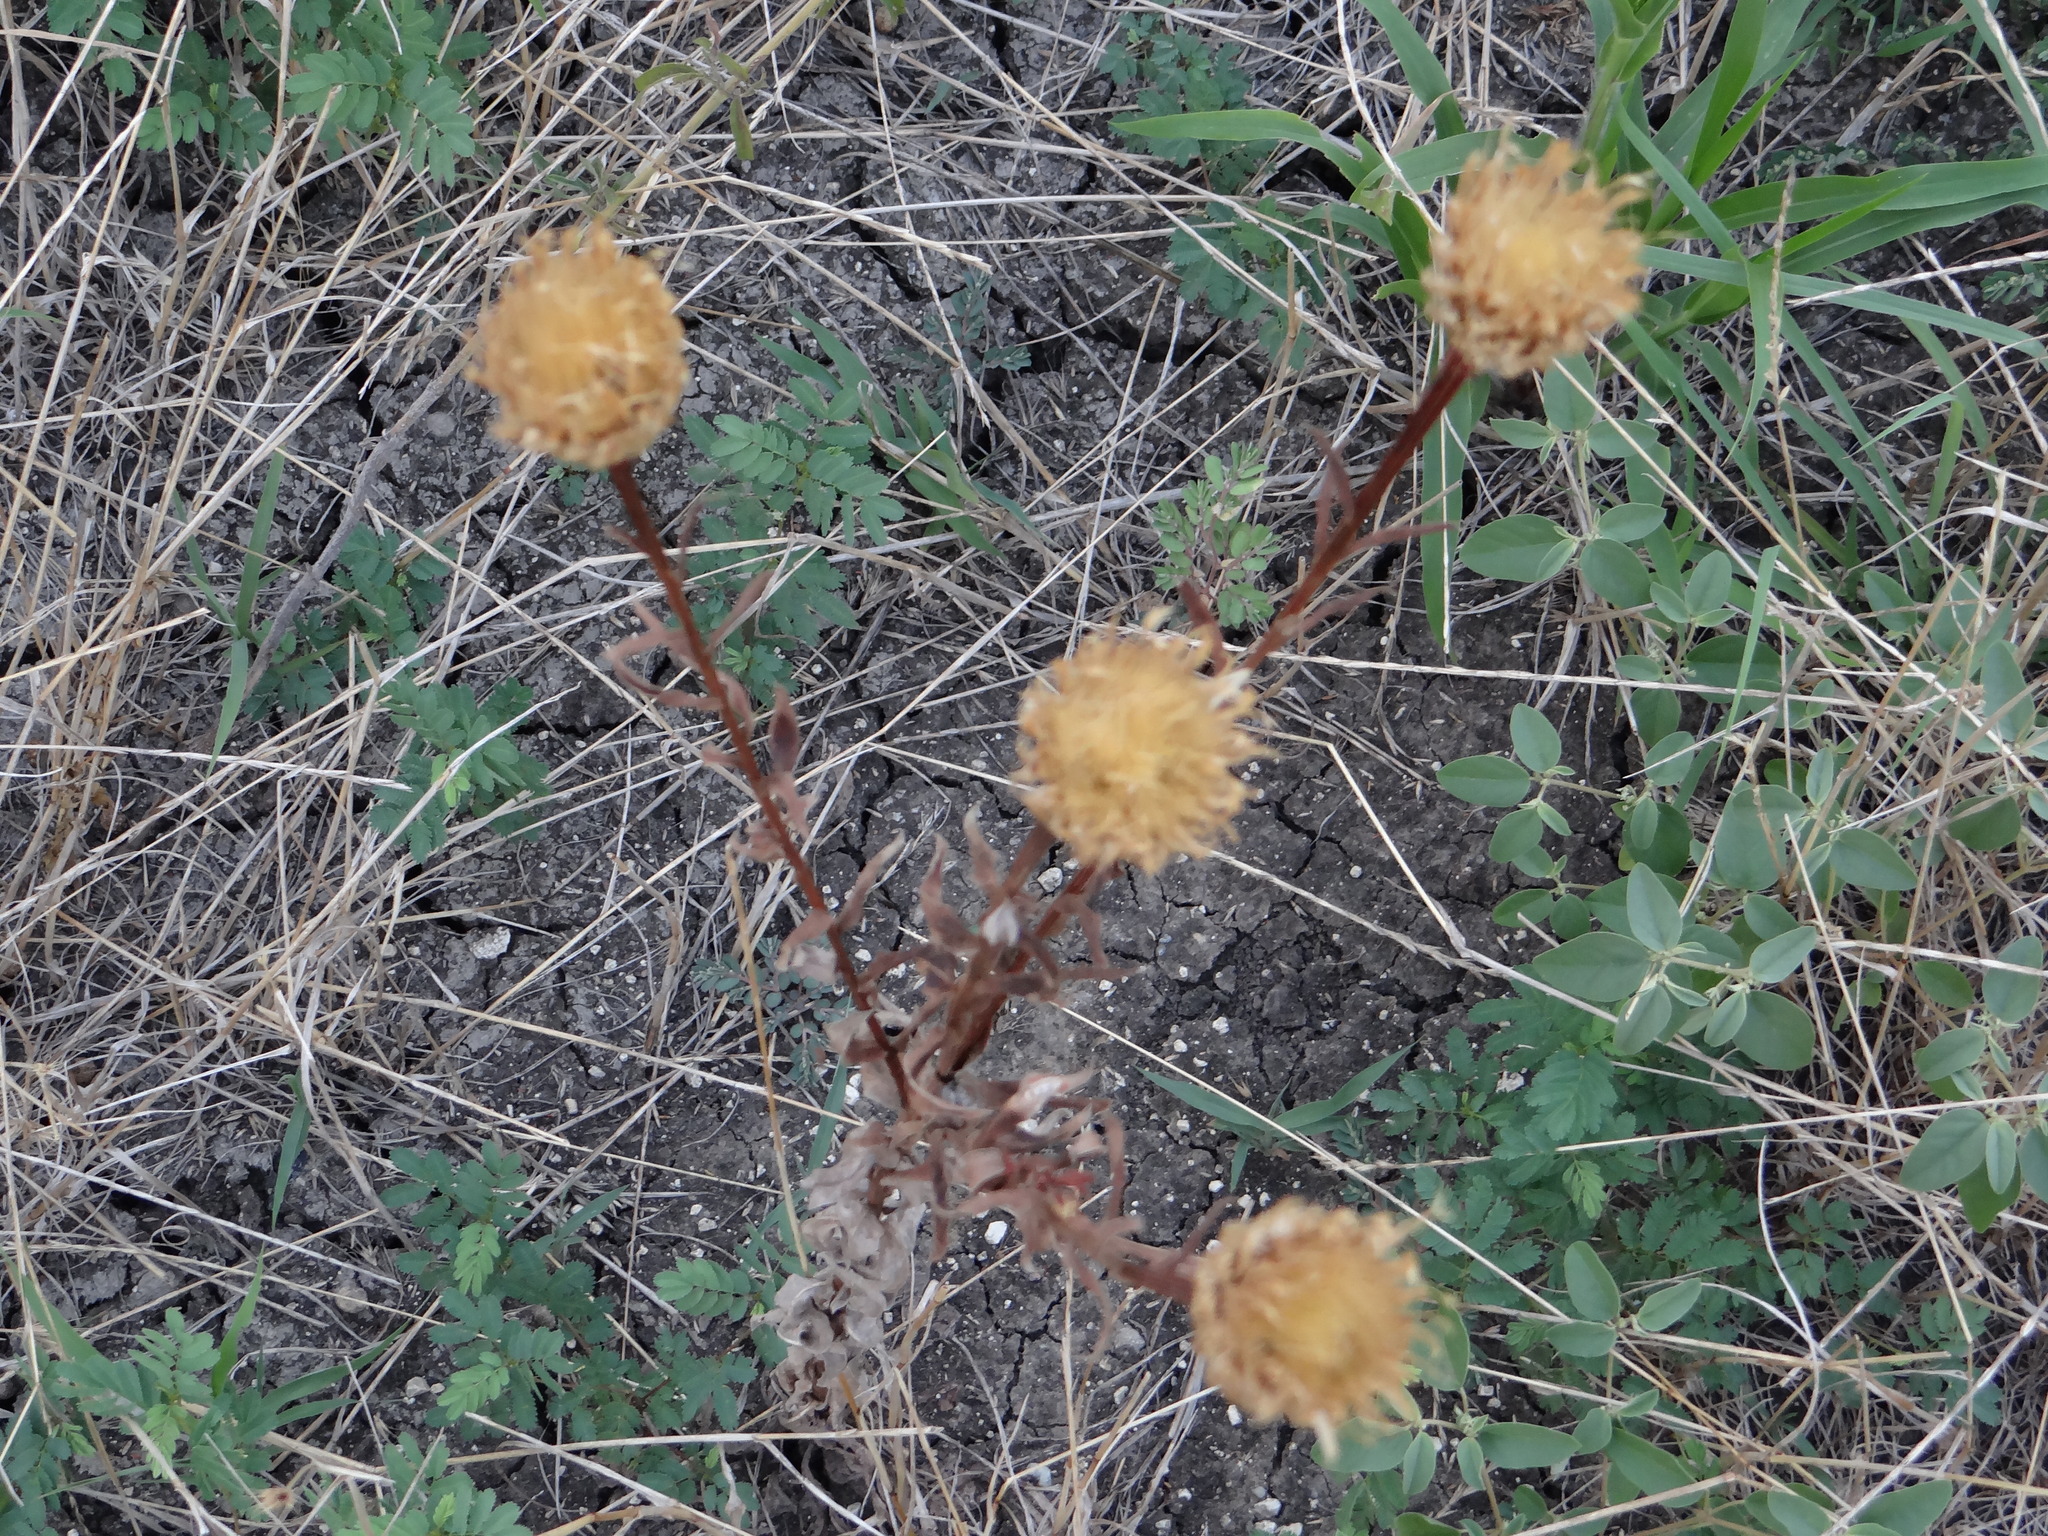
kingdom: Plantae
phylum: Tracheophyta
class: Magnoliopsida
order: Asterales
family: Asteraceae
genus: Plectocephalus
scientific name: Plectocephalus americanus
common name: American basket-flower
